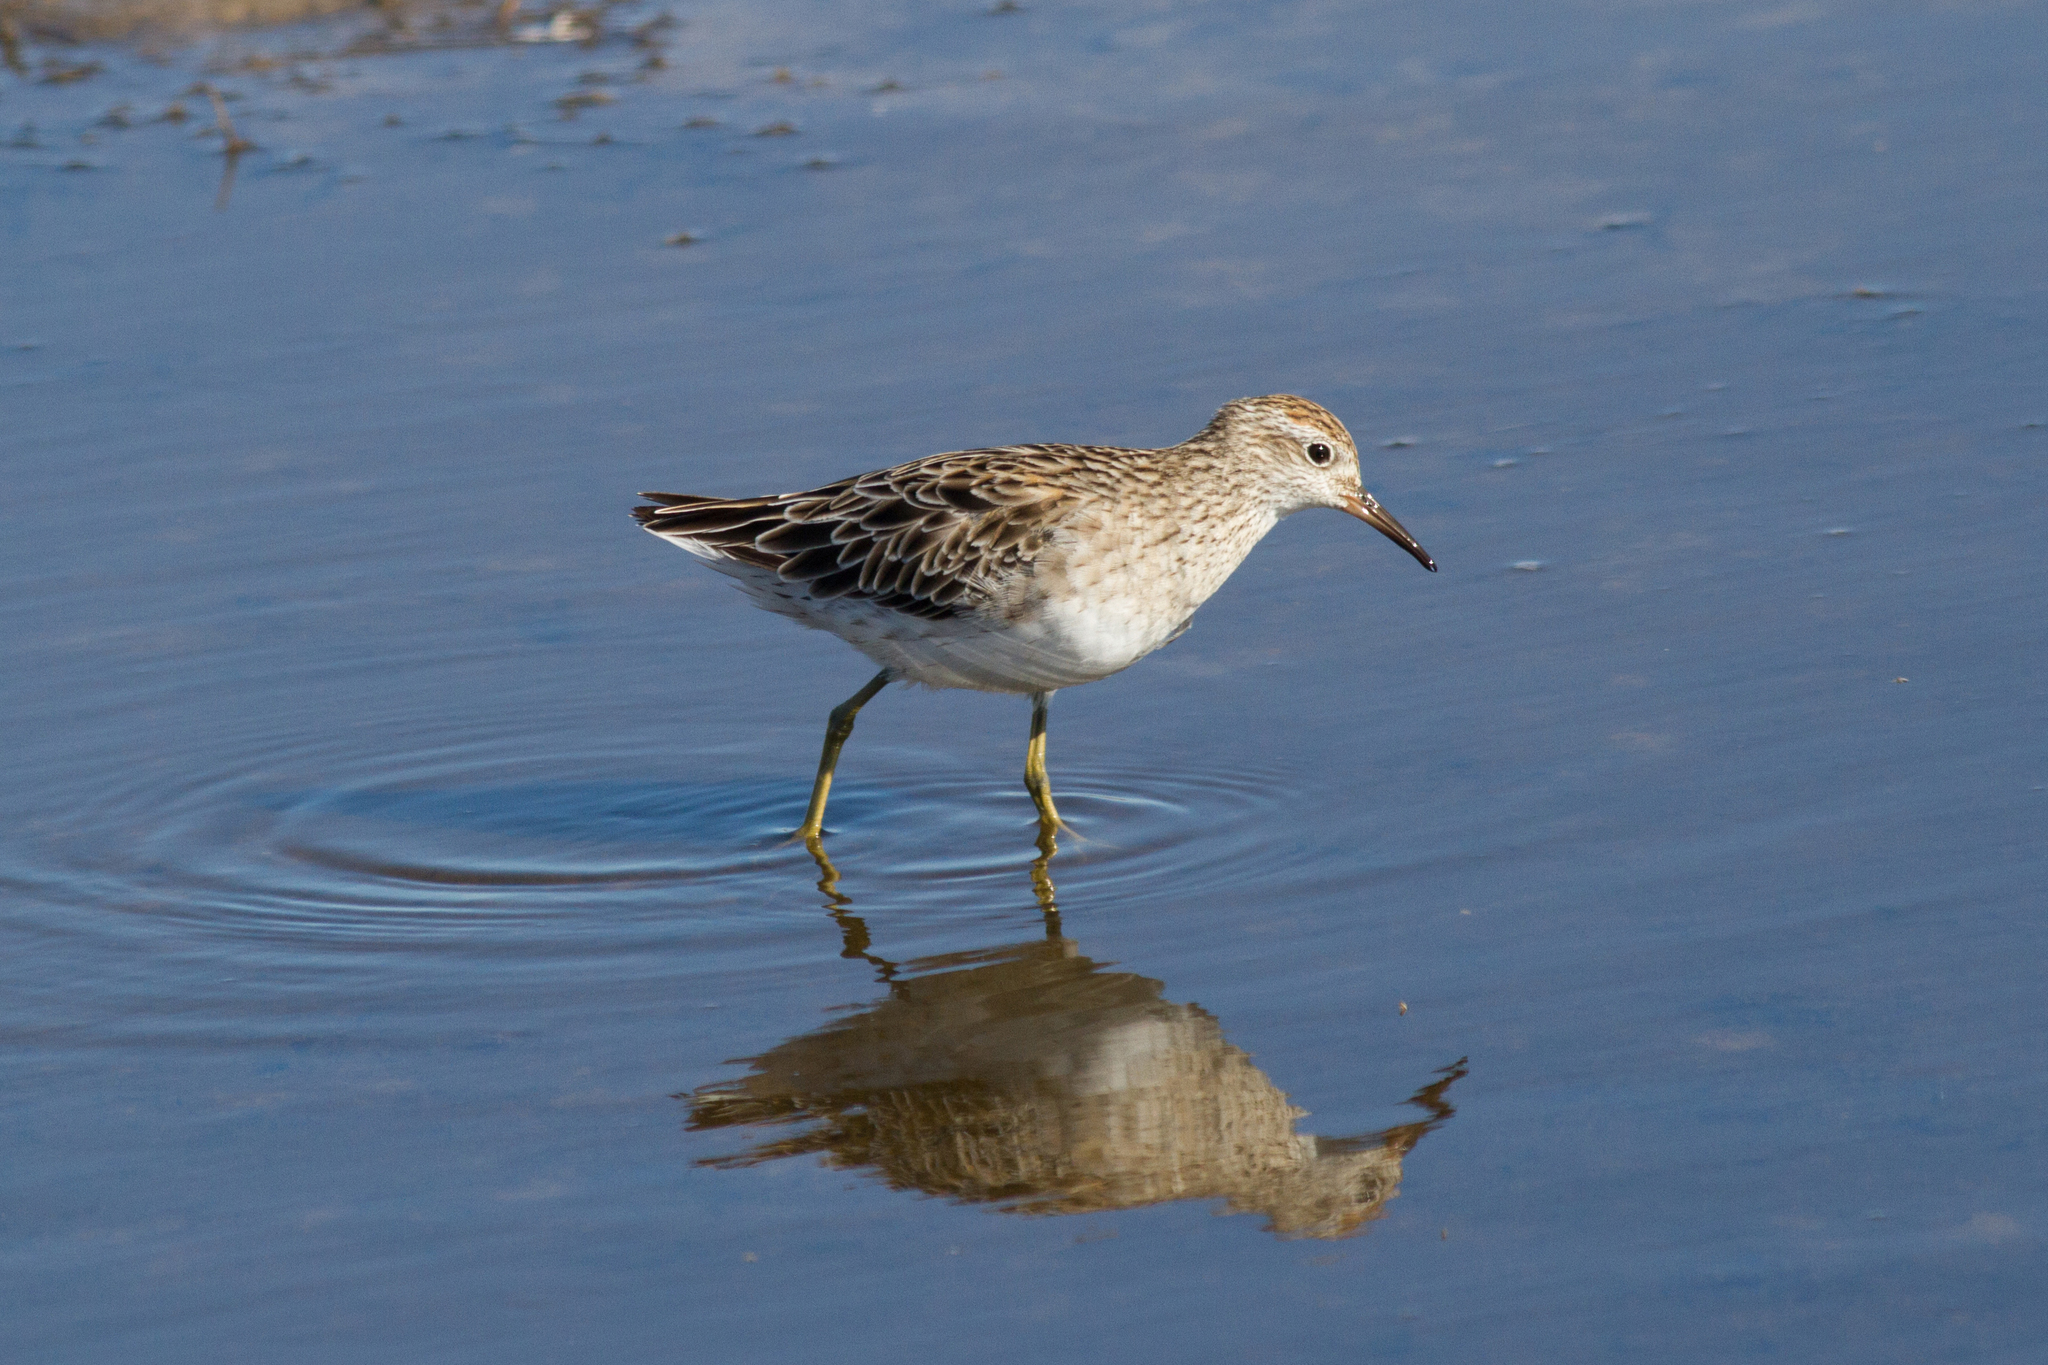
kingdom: Animalia
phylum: Chordata
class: Aves
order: Charadriiformes
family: Scolopacidae
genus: Calidris
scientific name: Calidris acuminata
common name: Sharp-tailed sandpiper
